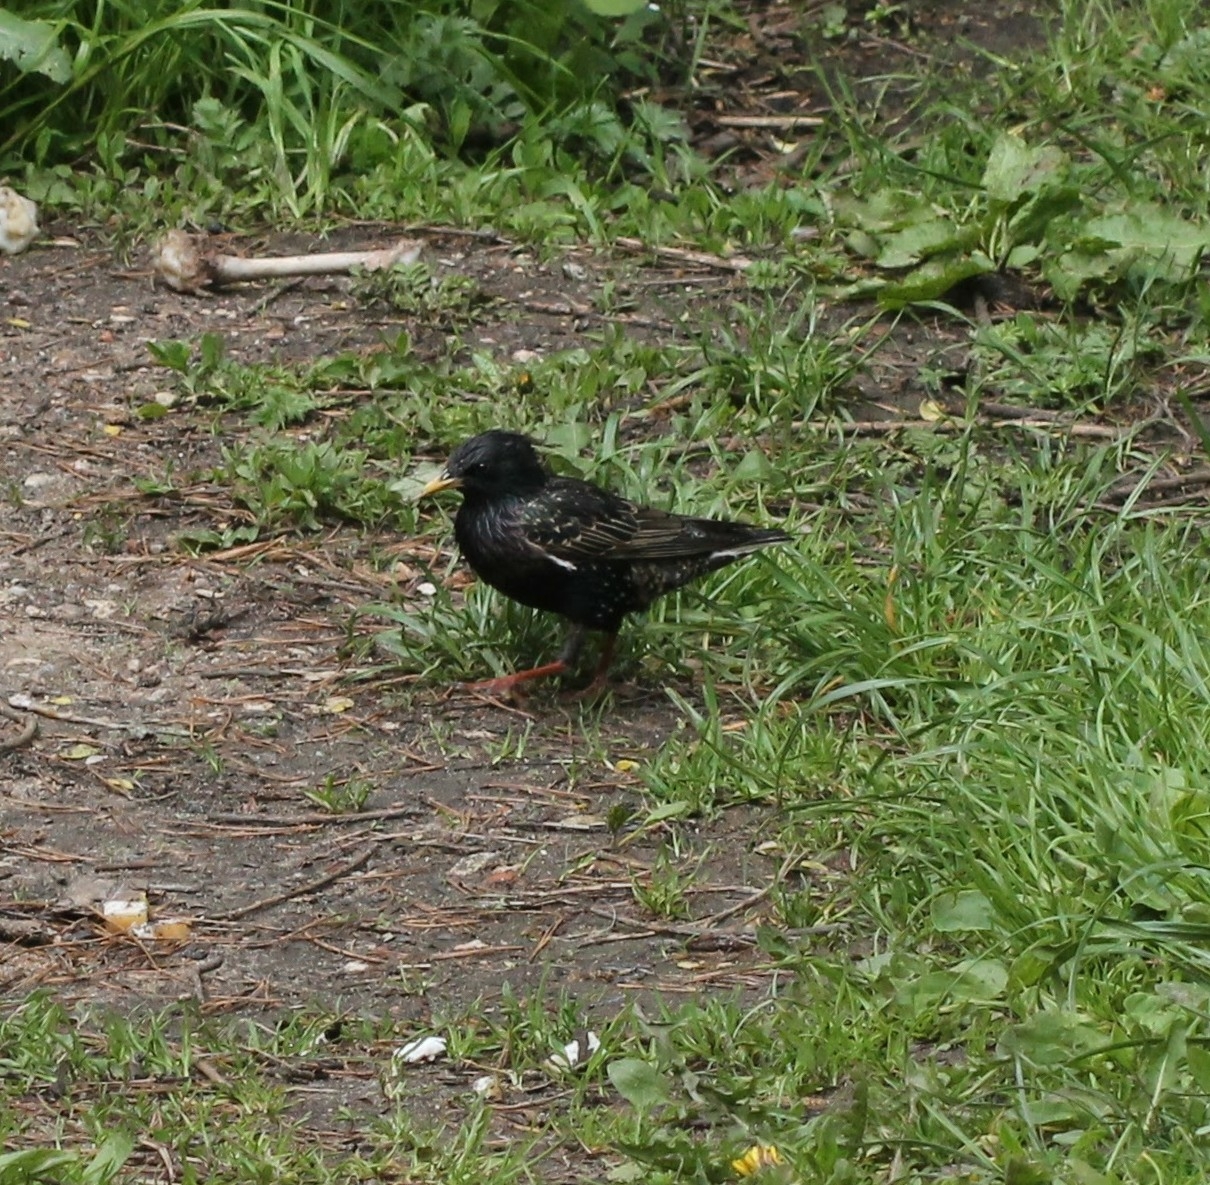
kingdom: Animalia
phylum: Chordata
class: Aves
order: Passeriformes
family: Sturnidae
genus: Sturnus
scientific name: Sturnus vulgaris
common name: Common starling
